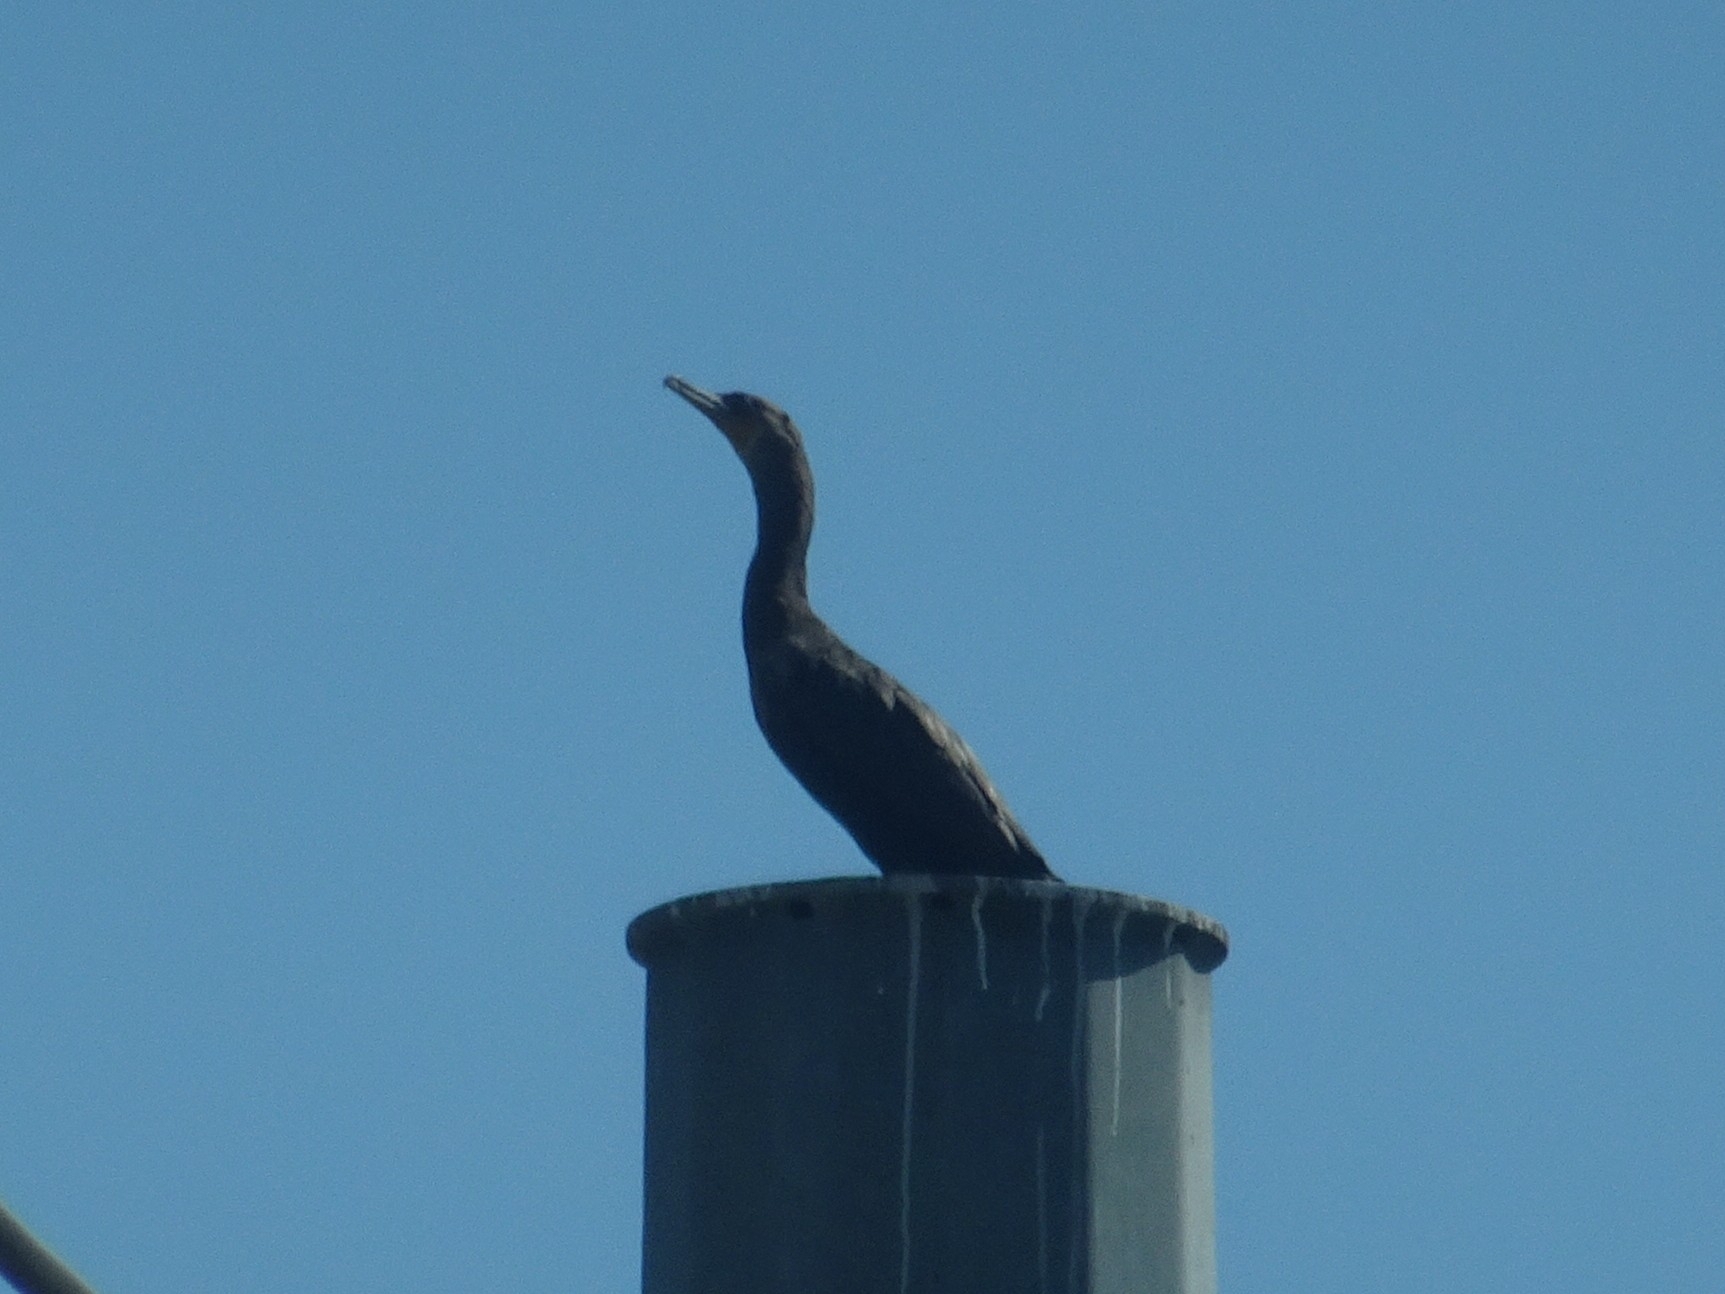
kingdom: Animalia
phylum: Chordata
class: Aves
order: Suliformes
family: Phalacrocoracidae
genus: Phalacrocorax
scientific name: Phalacrocorax auritus
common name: Double-crested cormorant
